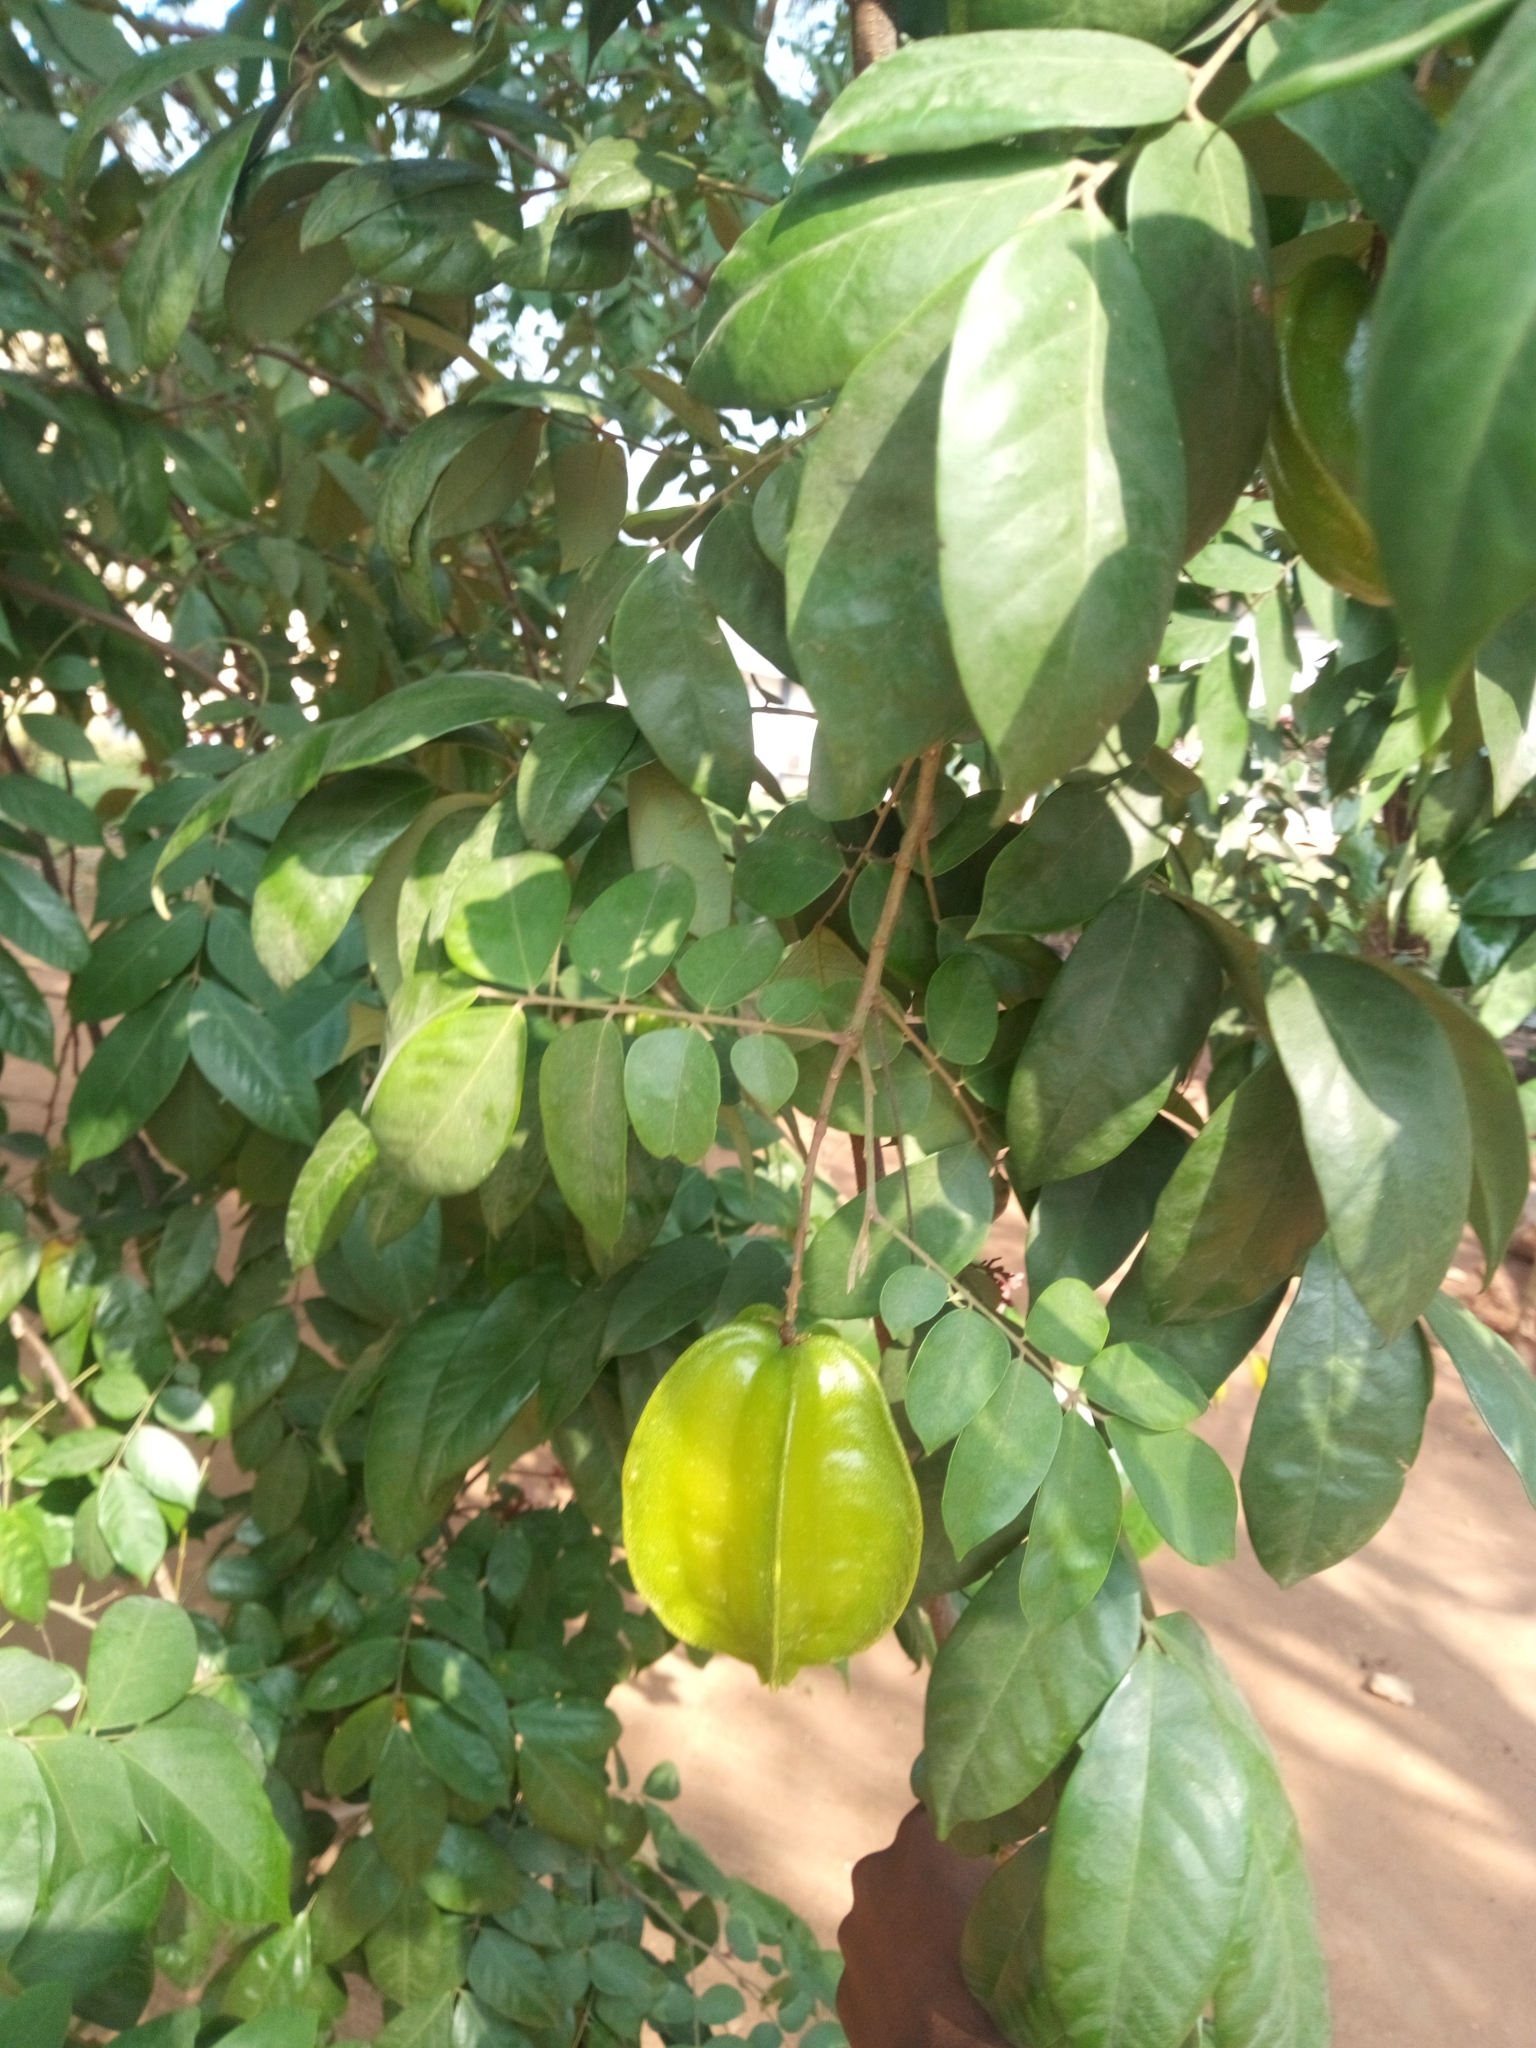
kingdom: Plantae
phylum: Tracheophyta
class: Magnoliopsida
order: Oxalidales
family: Oxalidaceae
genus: Averrhoa
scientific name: Averrhoa carambola
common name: Blimbing
